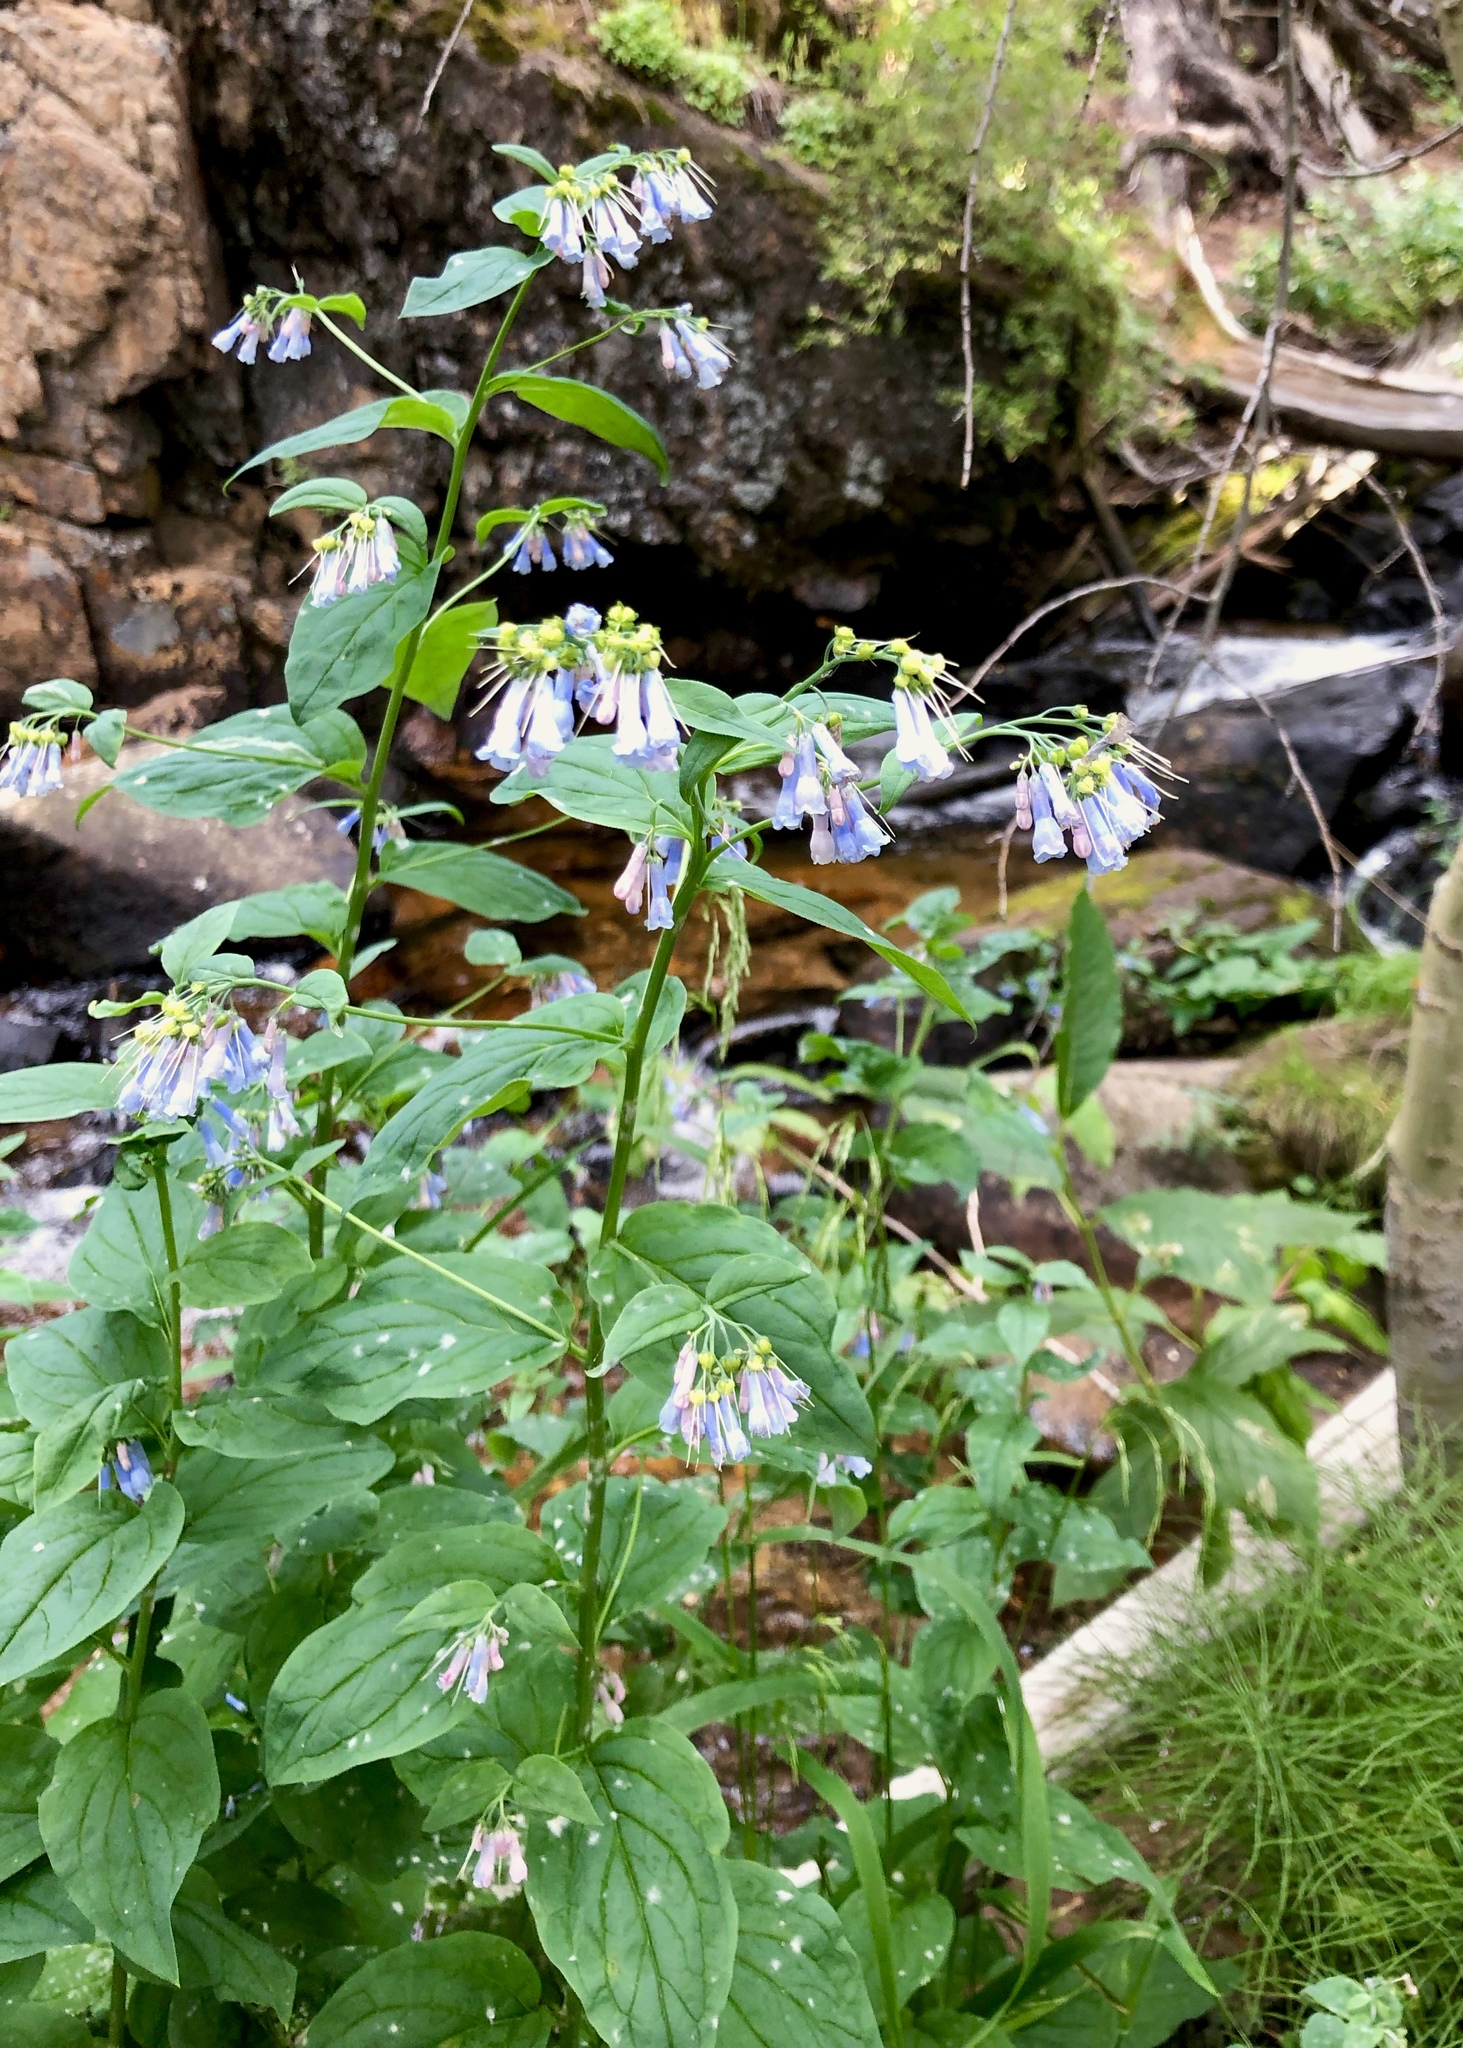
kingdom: Plantae
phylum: Tracheophyta
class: Magnoliopsida
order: Boraginales
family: Boraginaceae
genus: Mertensia
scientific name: Mertensia ciliata
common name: Tall chiming-bells
